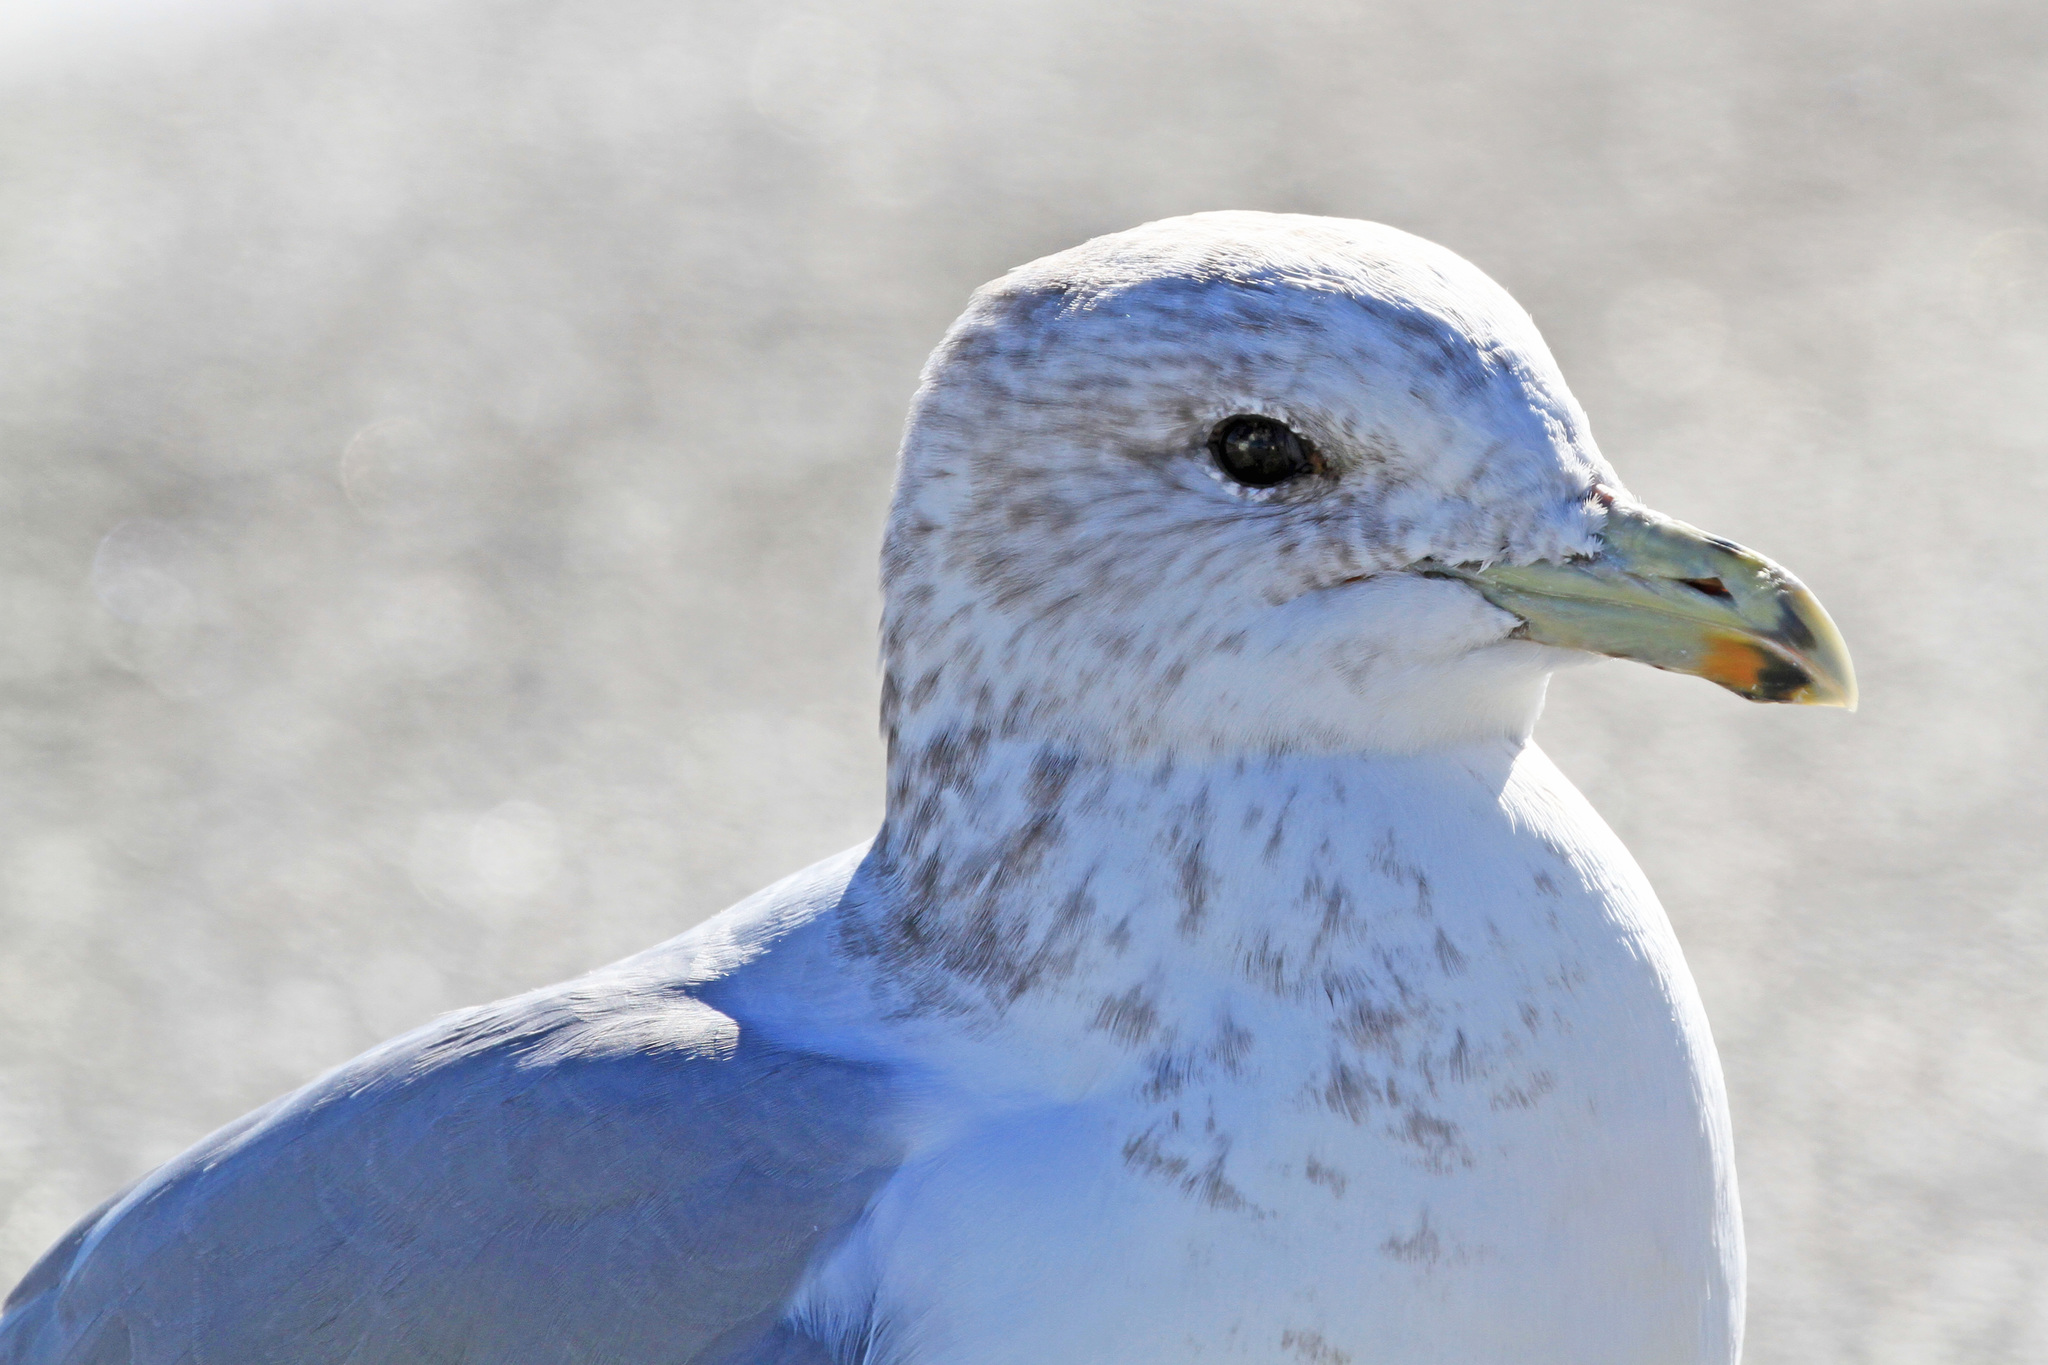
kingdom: Animalia
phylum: Chordata
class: Aves
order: Charadriiformes
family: Laridae
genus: Larus
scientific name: Larus californicus
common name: California gull
